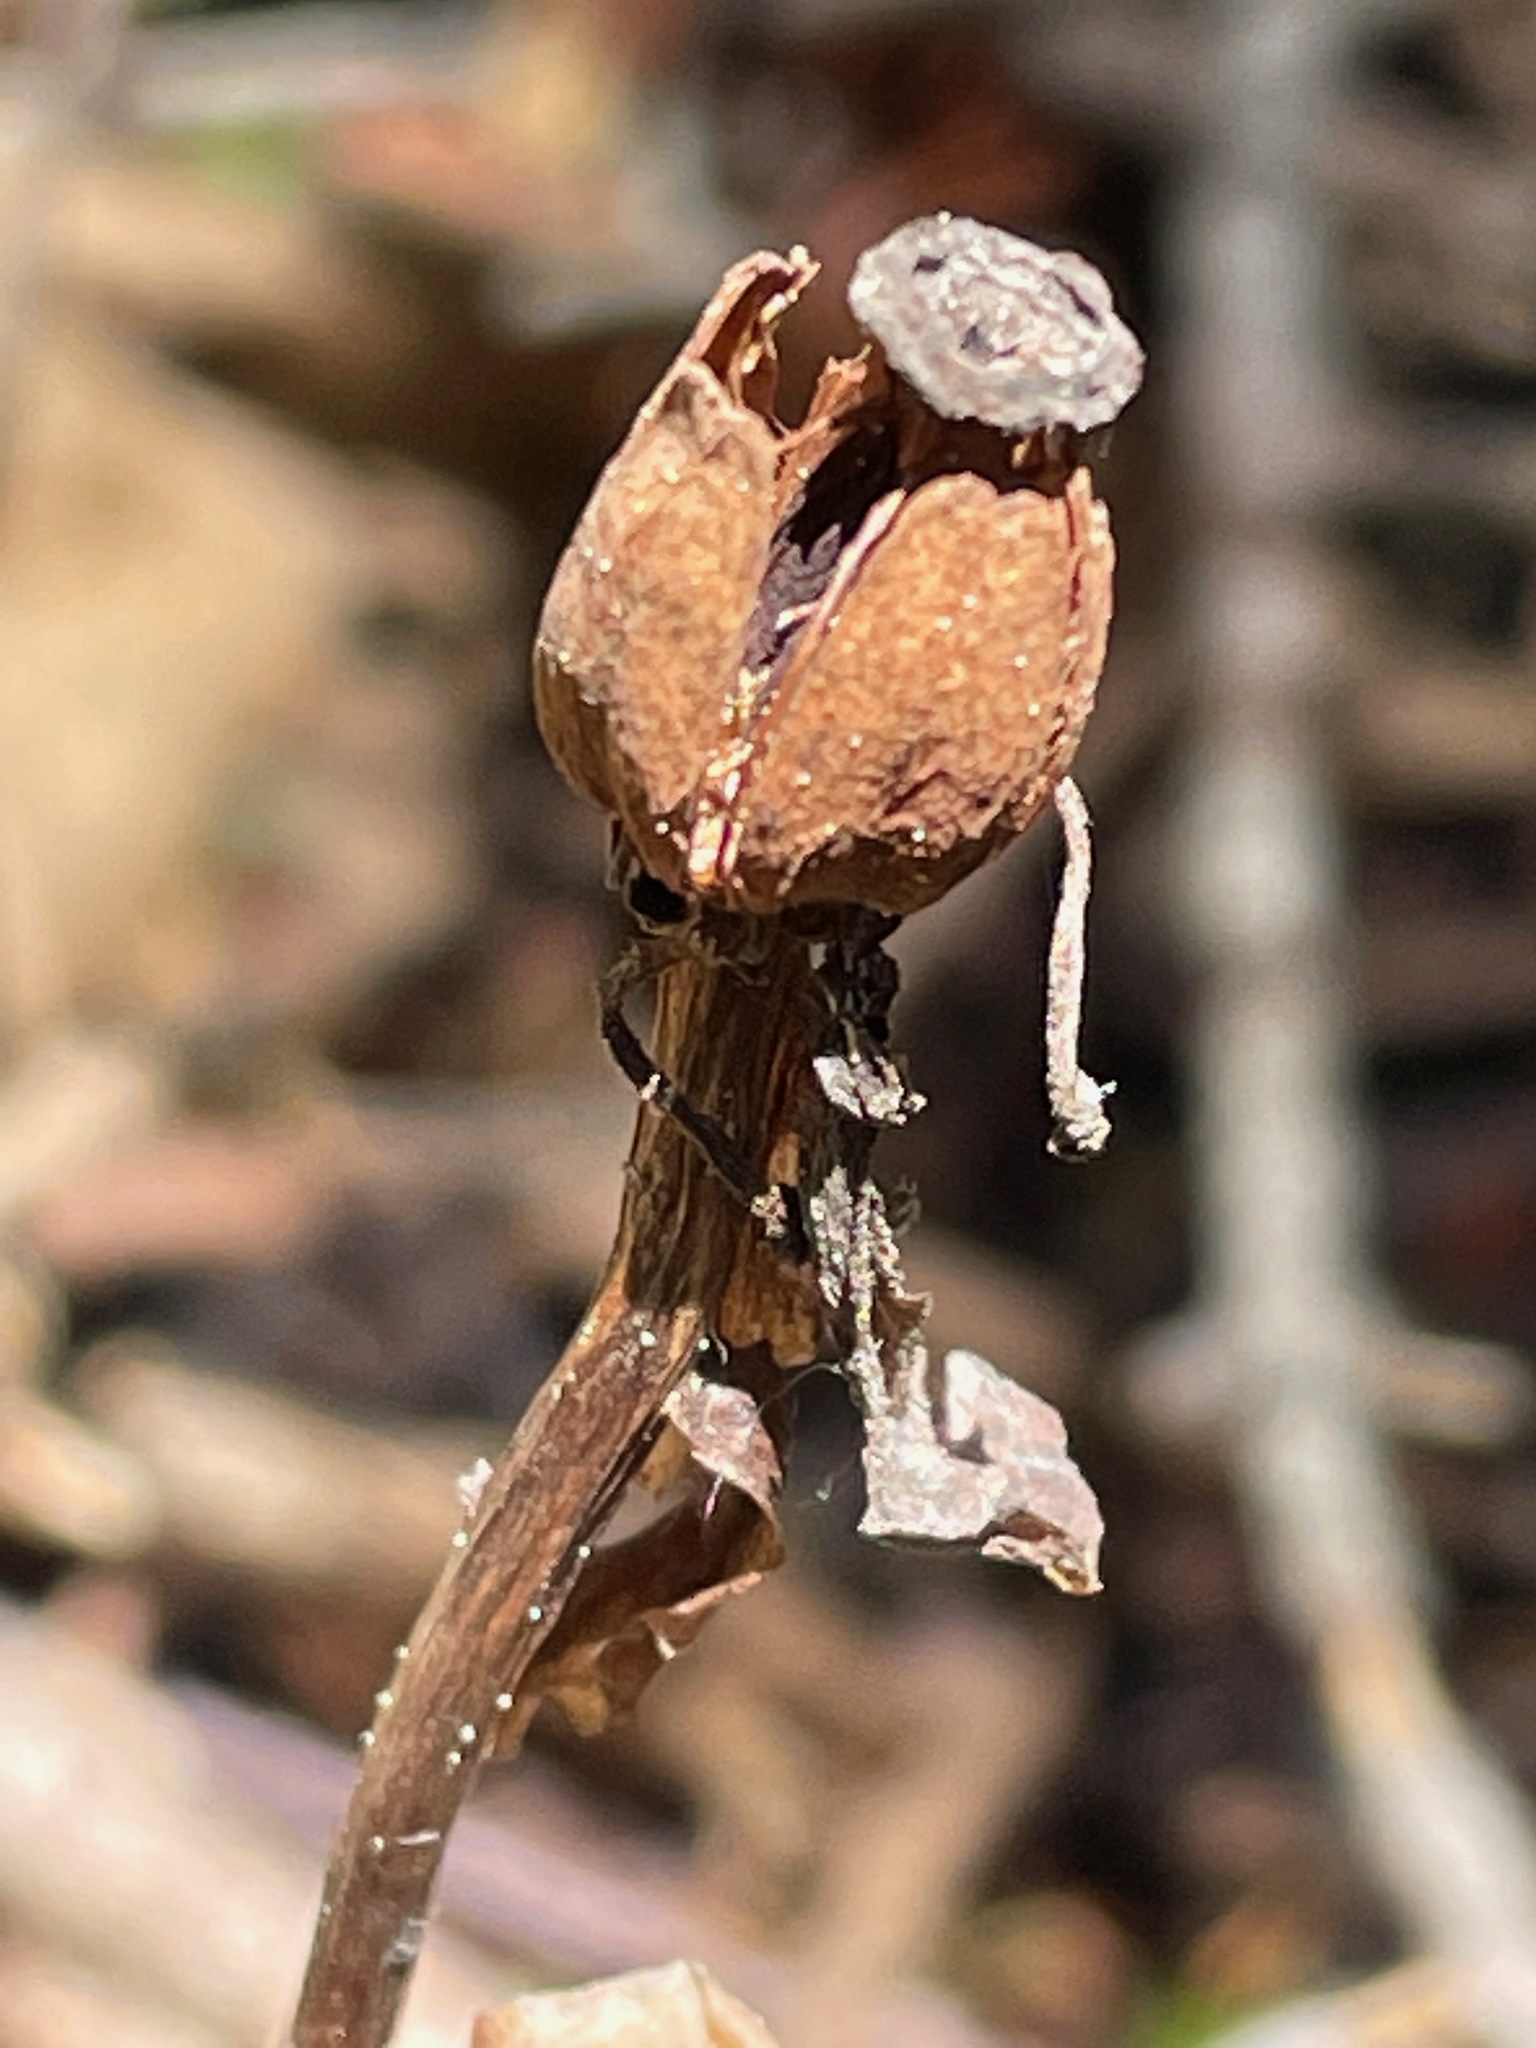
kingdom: Plantae
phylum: Tracheophyta
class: Magnoliopsida
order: Ericales
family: Ericaceae
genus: Monotropa
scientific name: Monotropa uniflora
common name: Convulsion root
